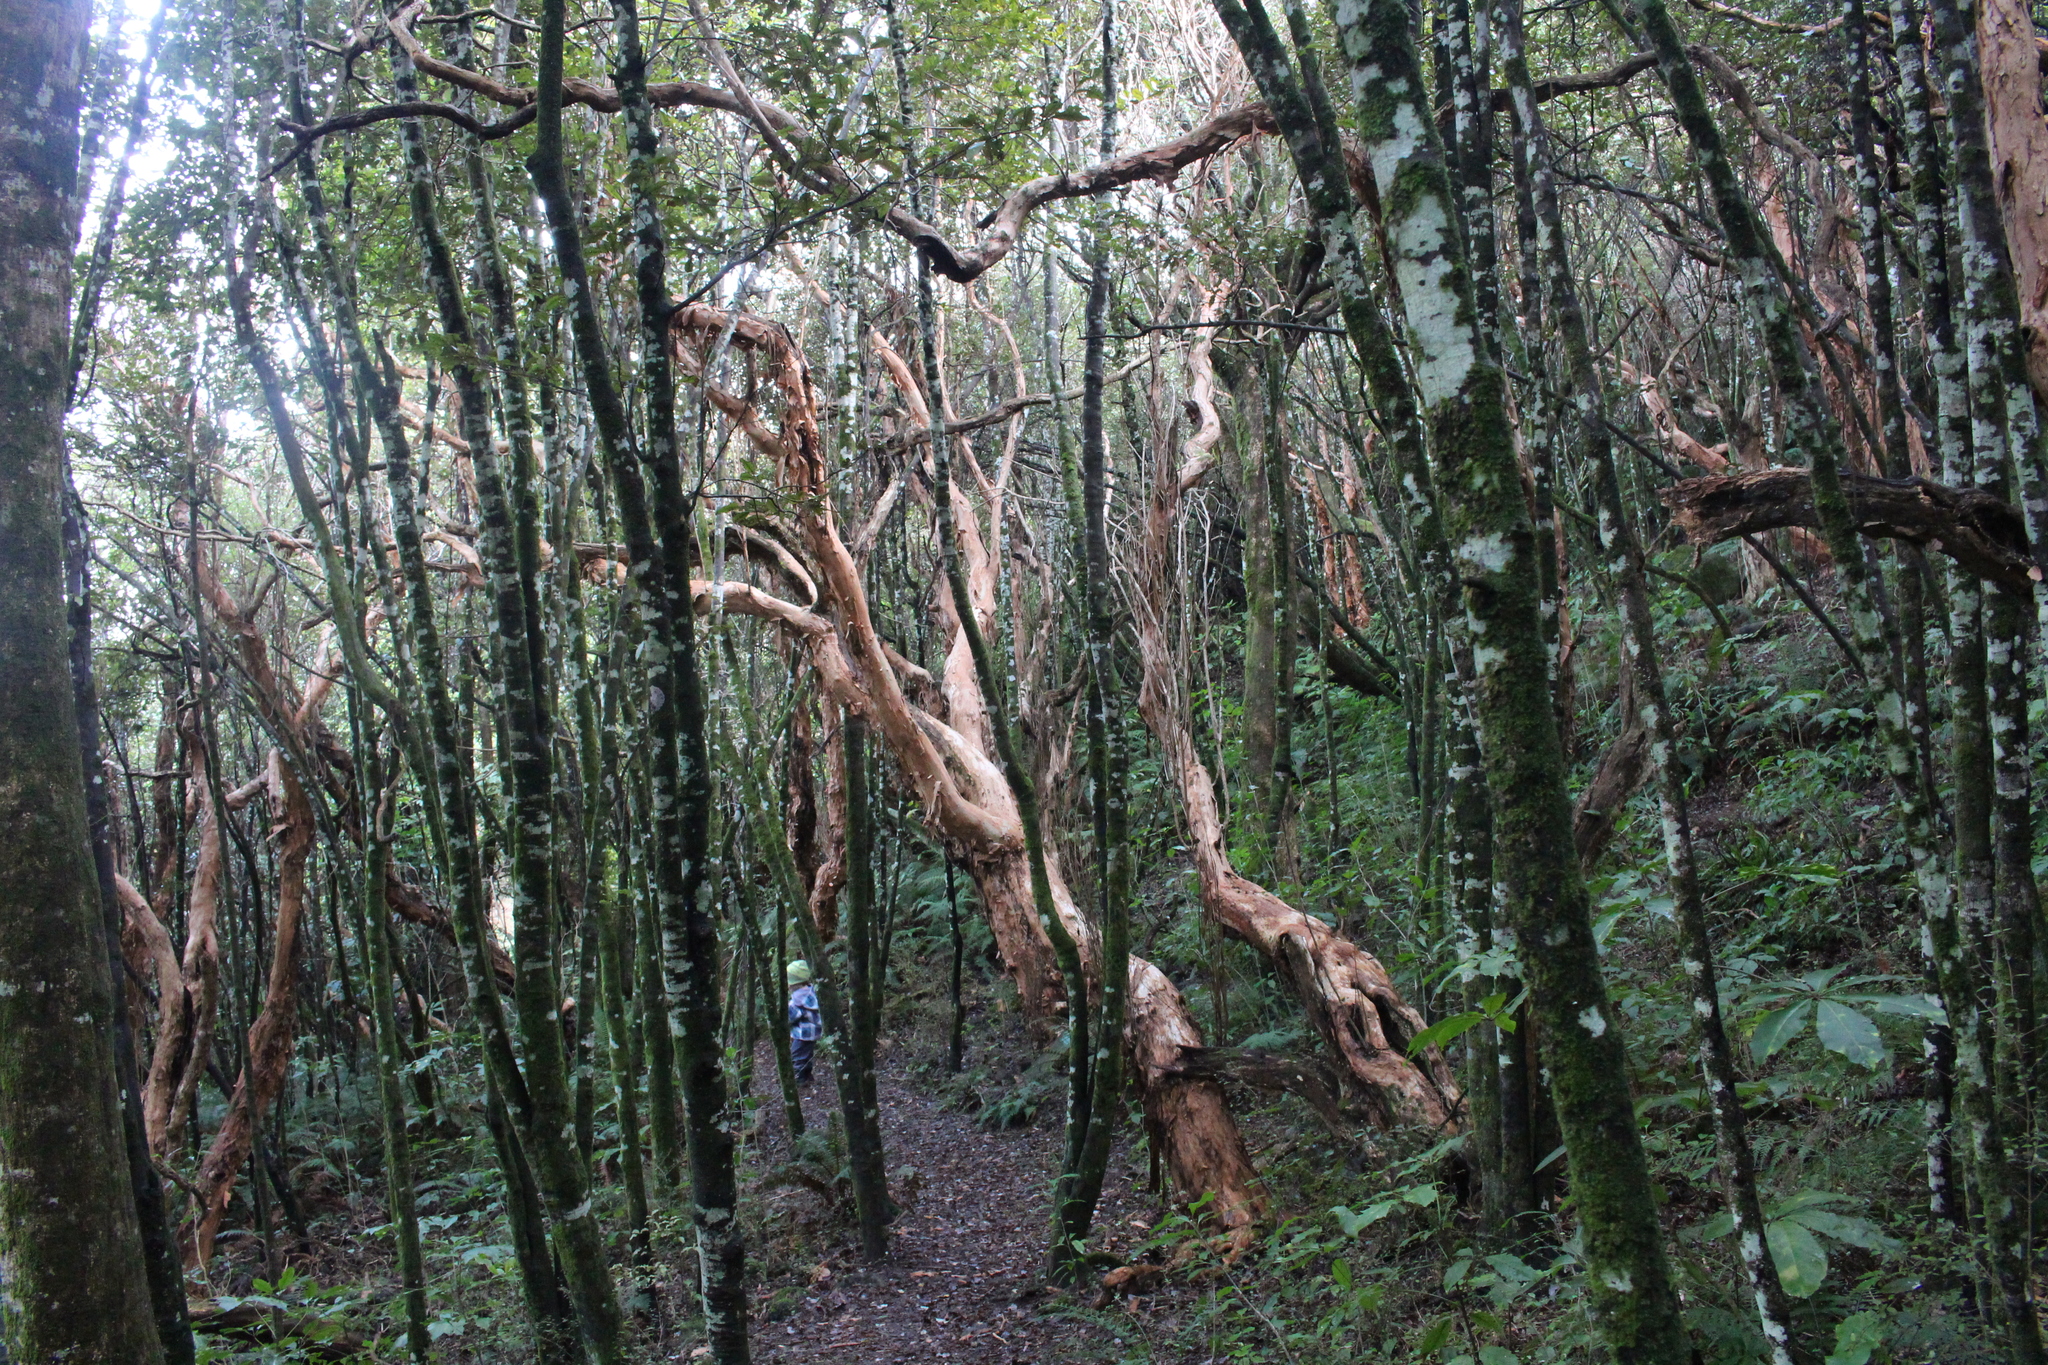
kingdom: Plantae
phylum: Tracheophyta
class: Magnoliopsida
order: Myrtales
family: Onagraceae
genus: Fuchsia
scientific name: Fuchsia excorticata
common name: Tree fuchsia
